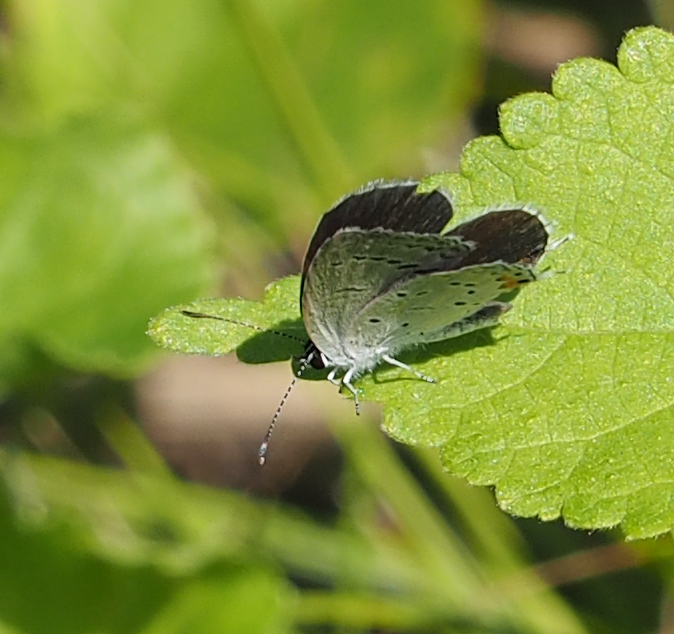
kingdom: Animalia
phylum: Arthropoda
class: Insecta
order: Lepidoptera
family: Lycaenidae
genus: Elkalyce
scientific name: Elkalyce comyntas
